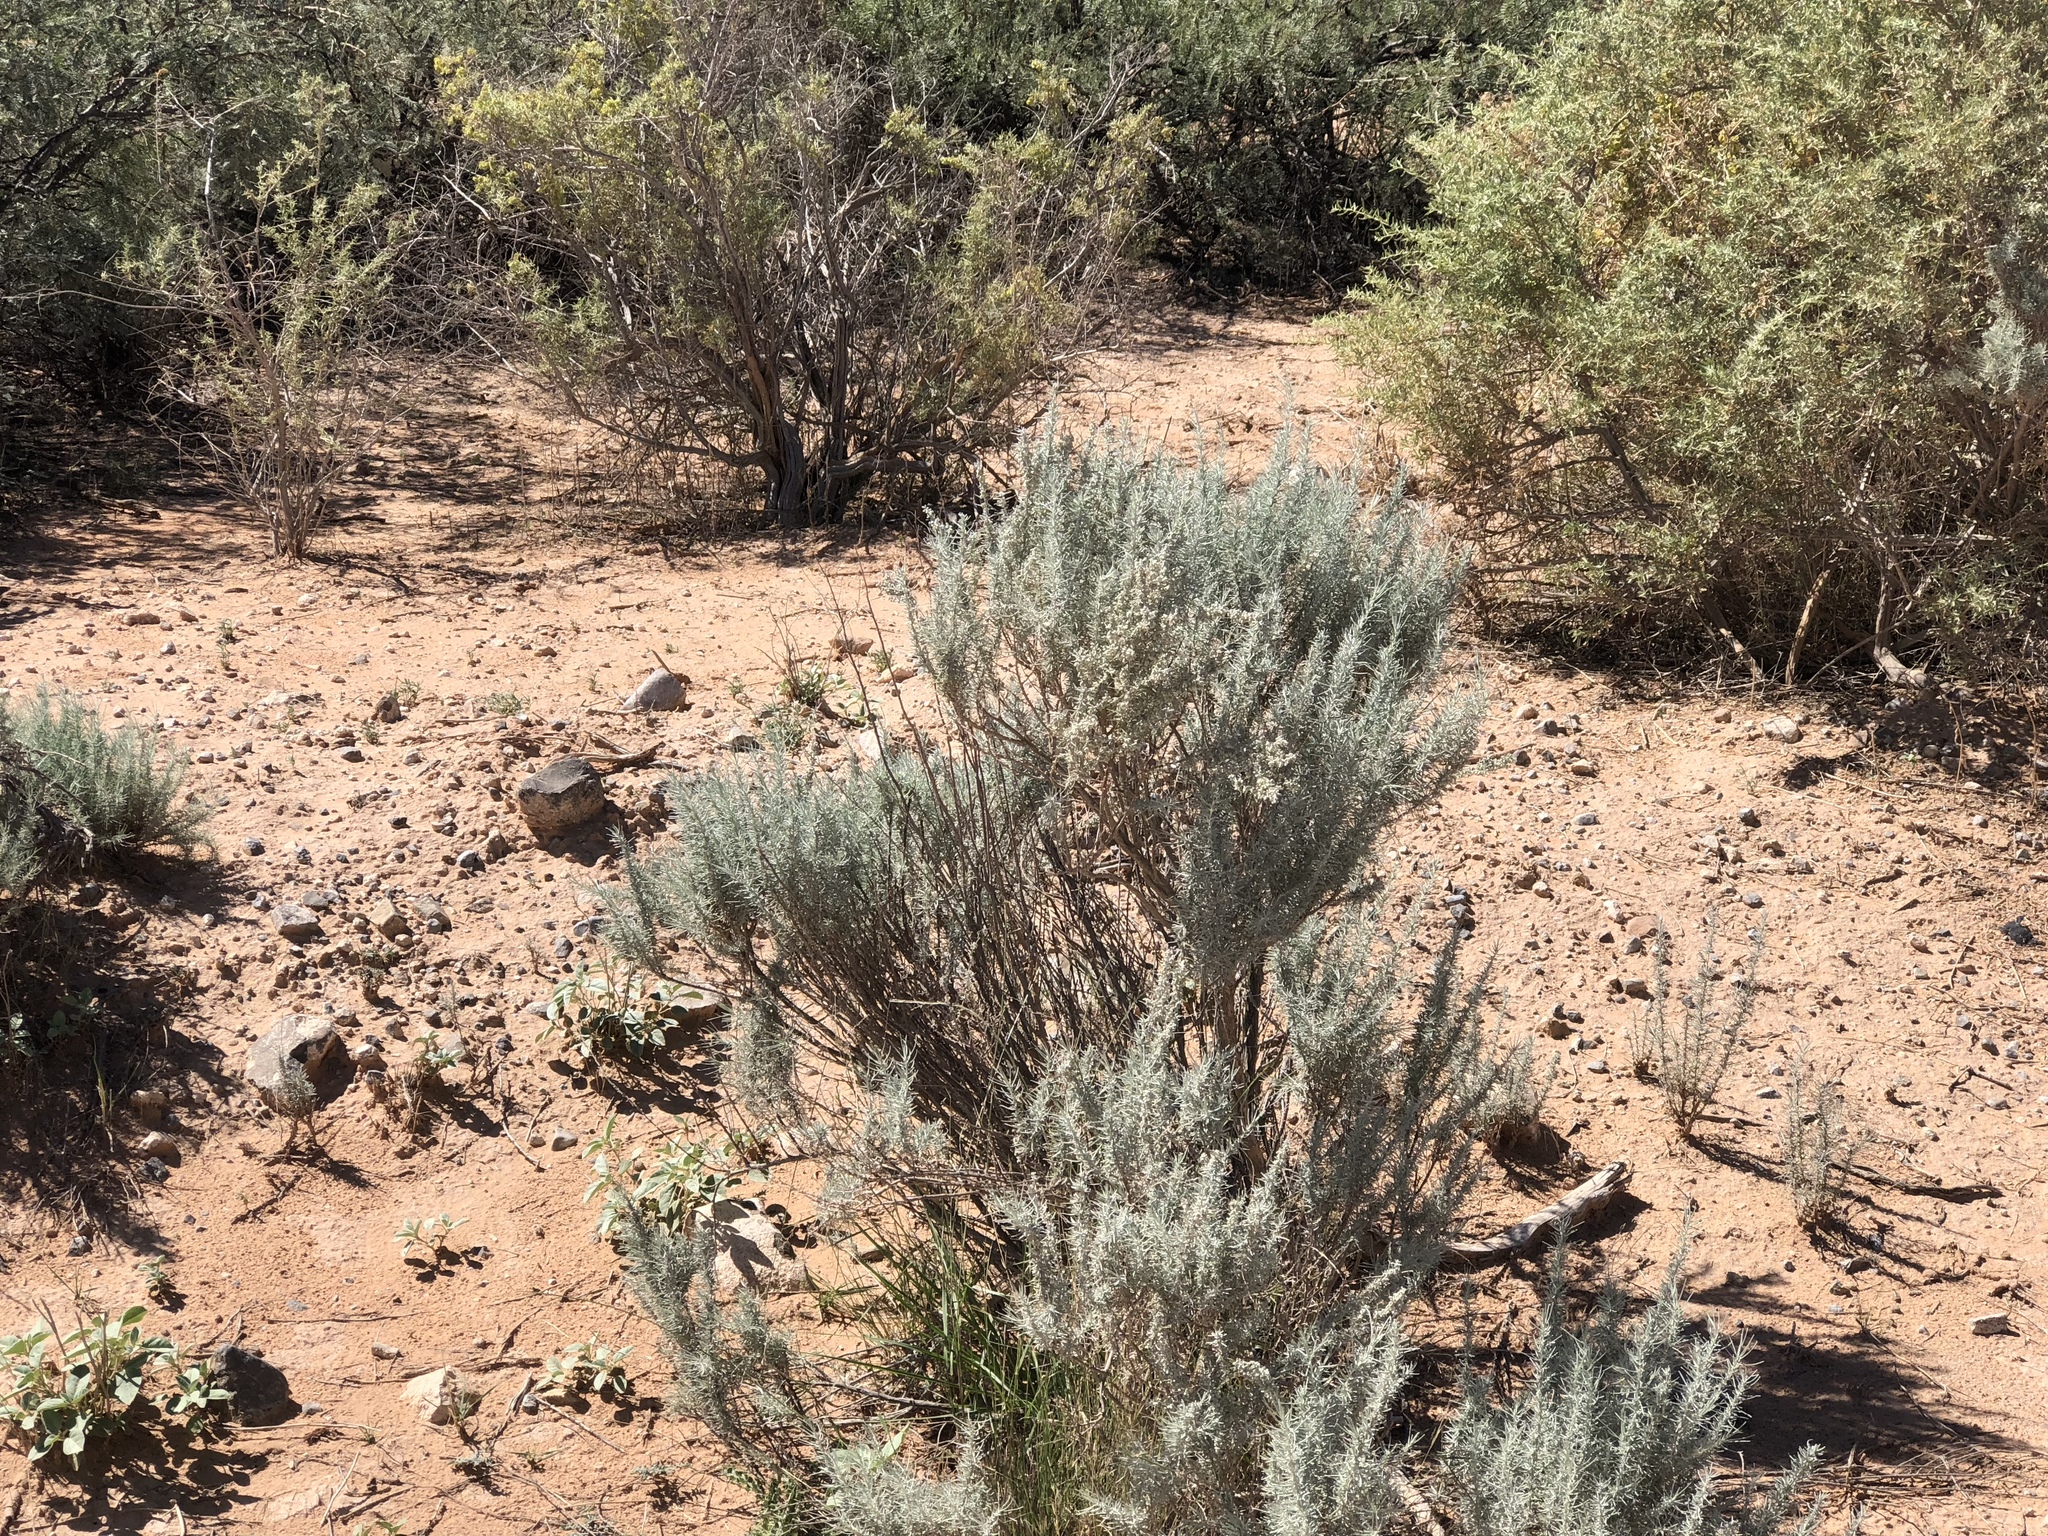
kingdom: Plantae
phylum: Tracheophyta
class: Magnoliopsida
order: Caryophyllales
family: Amaranthaceae
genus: Krascheninnikovia
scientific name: Krascheninnikovia lanata
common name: Winterfat
